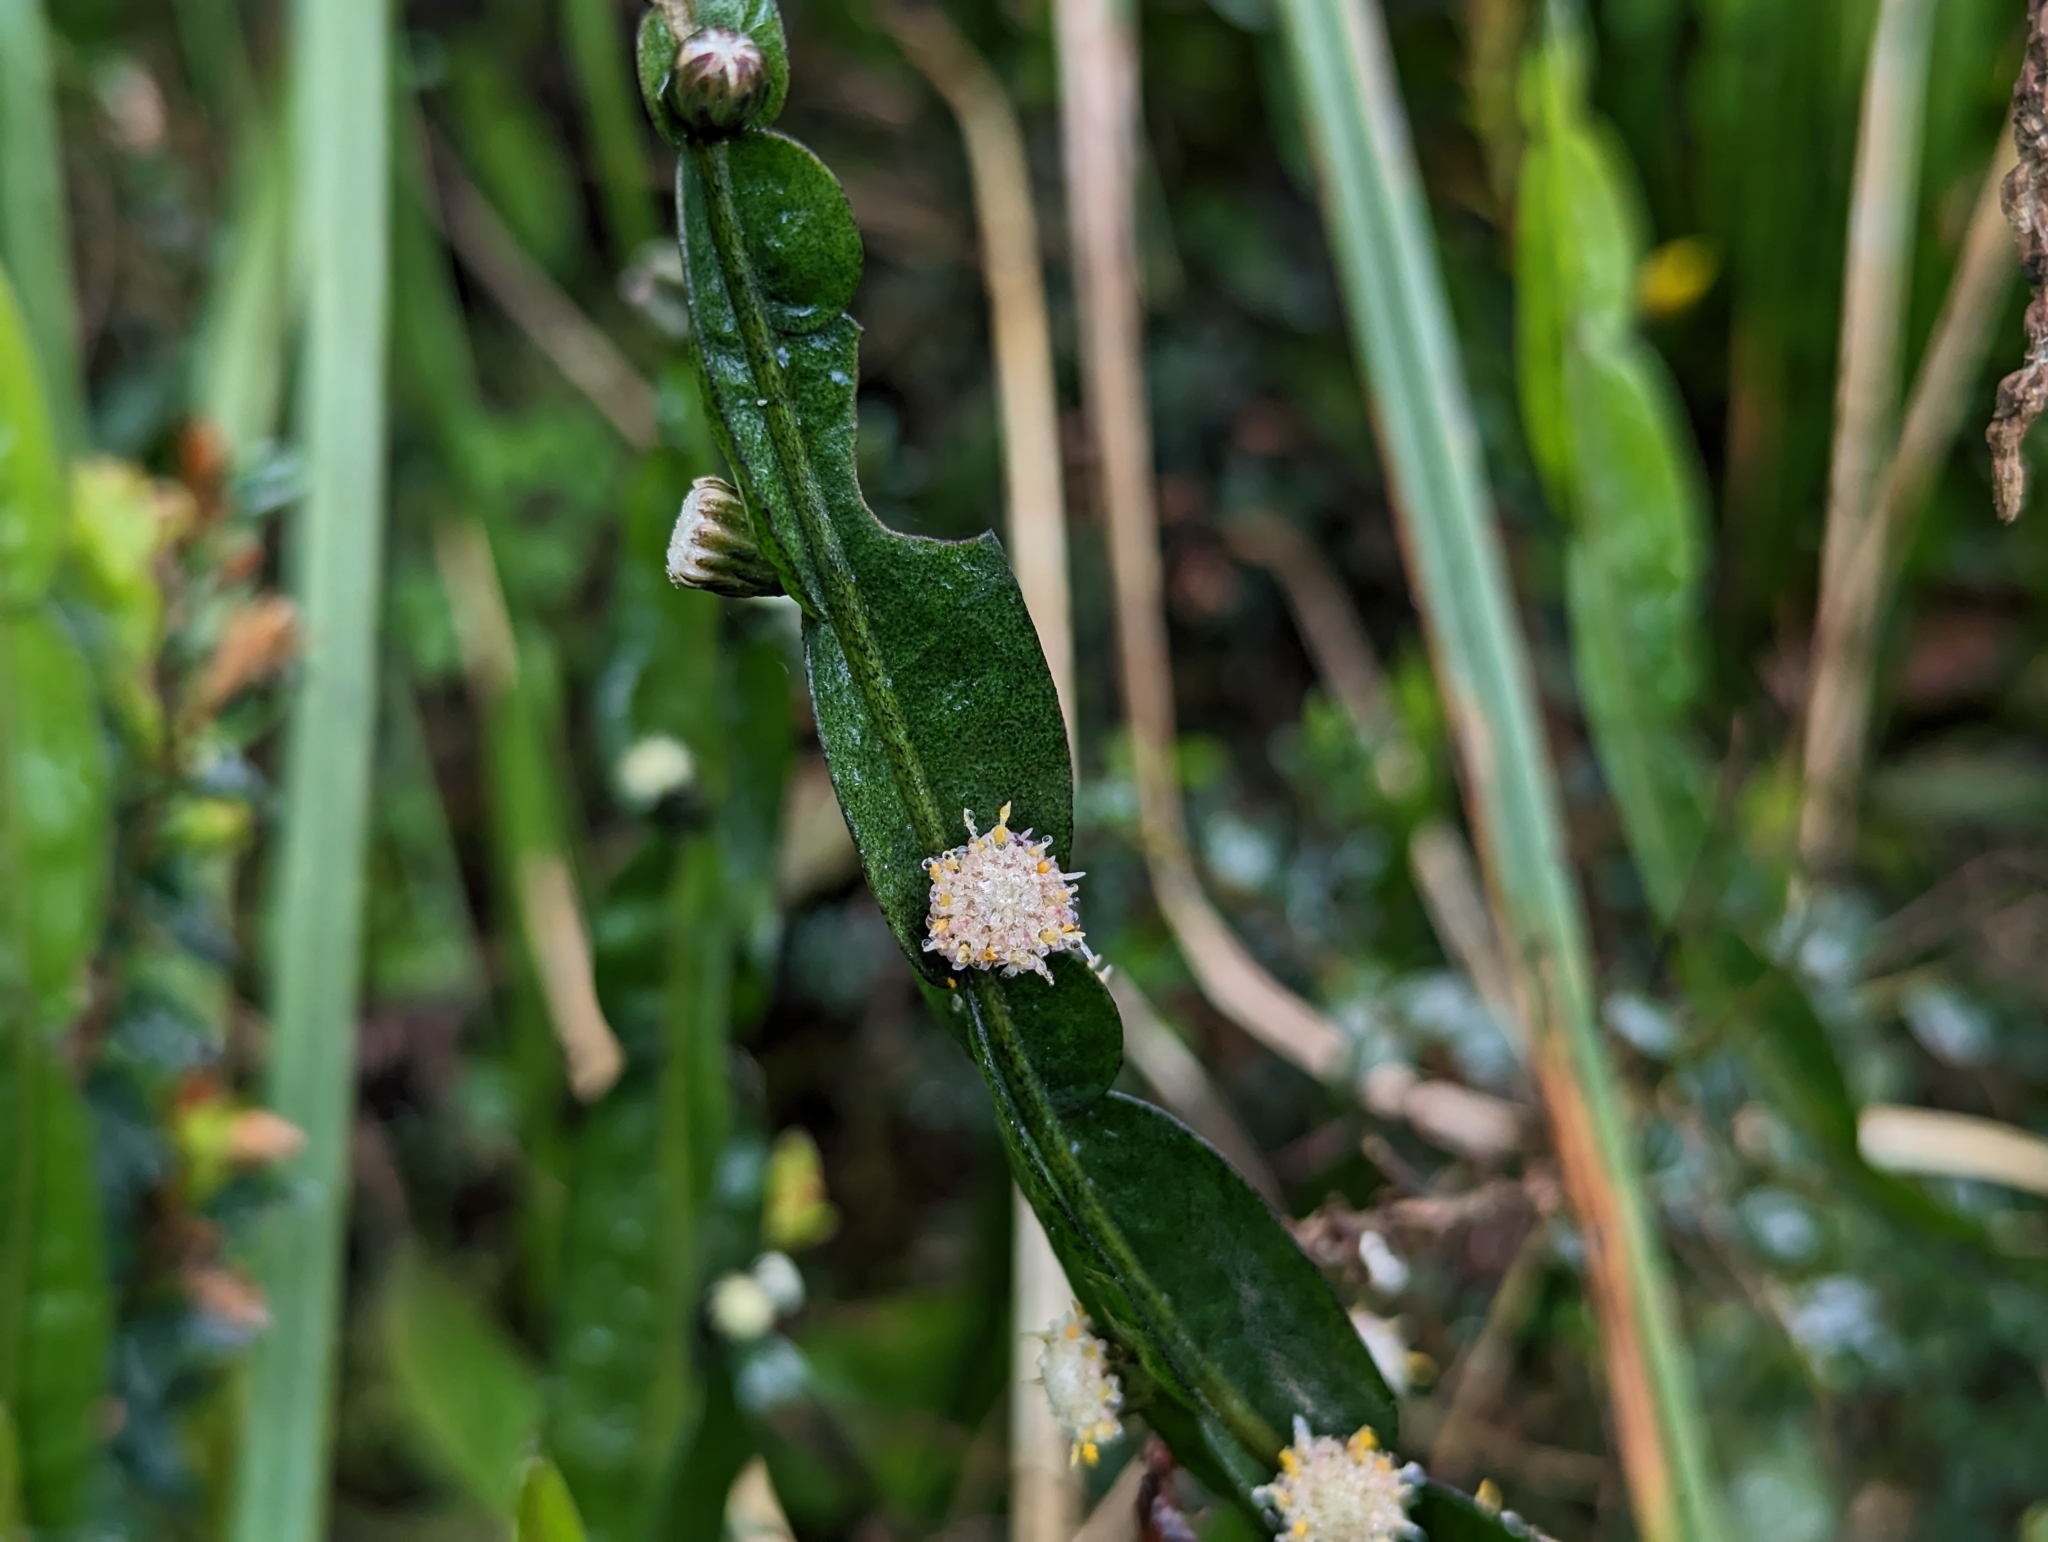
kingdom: Plantae
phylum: Tracheophyta
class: Magnoliopsida
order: Asterales
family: Asteraceae
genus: Baccharis
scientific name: Baccharis genistelloides
